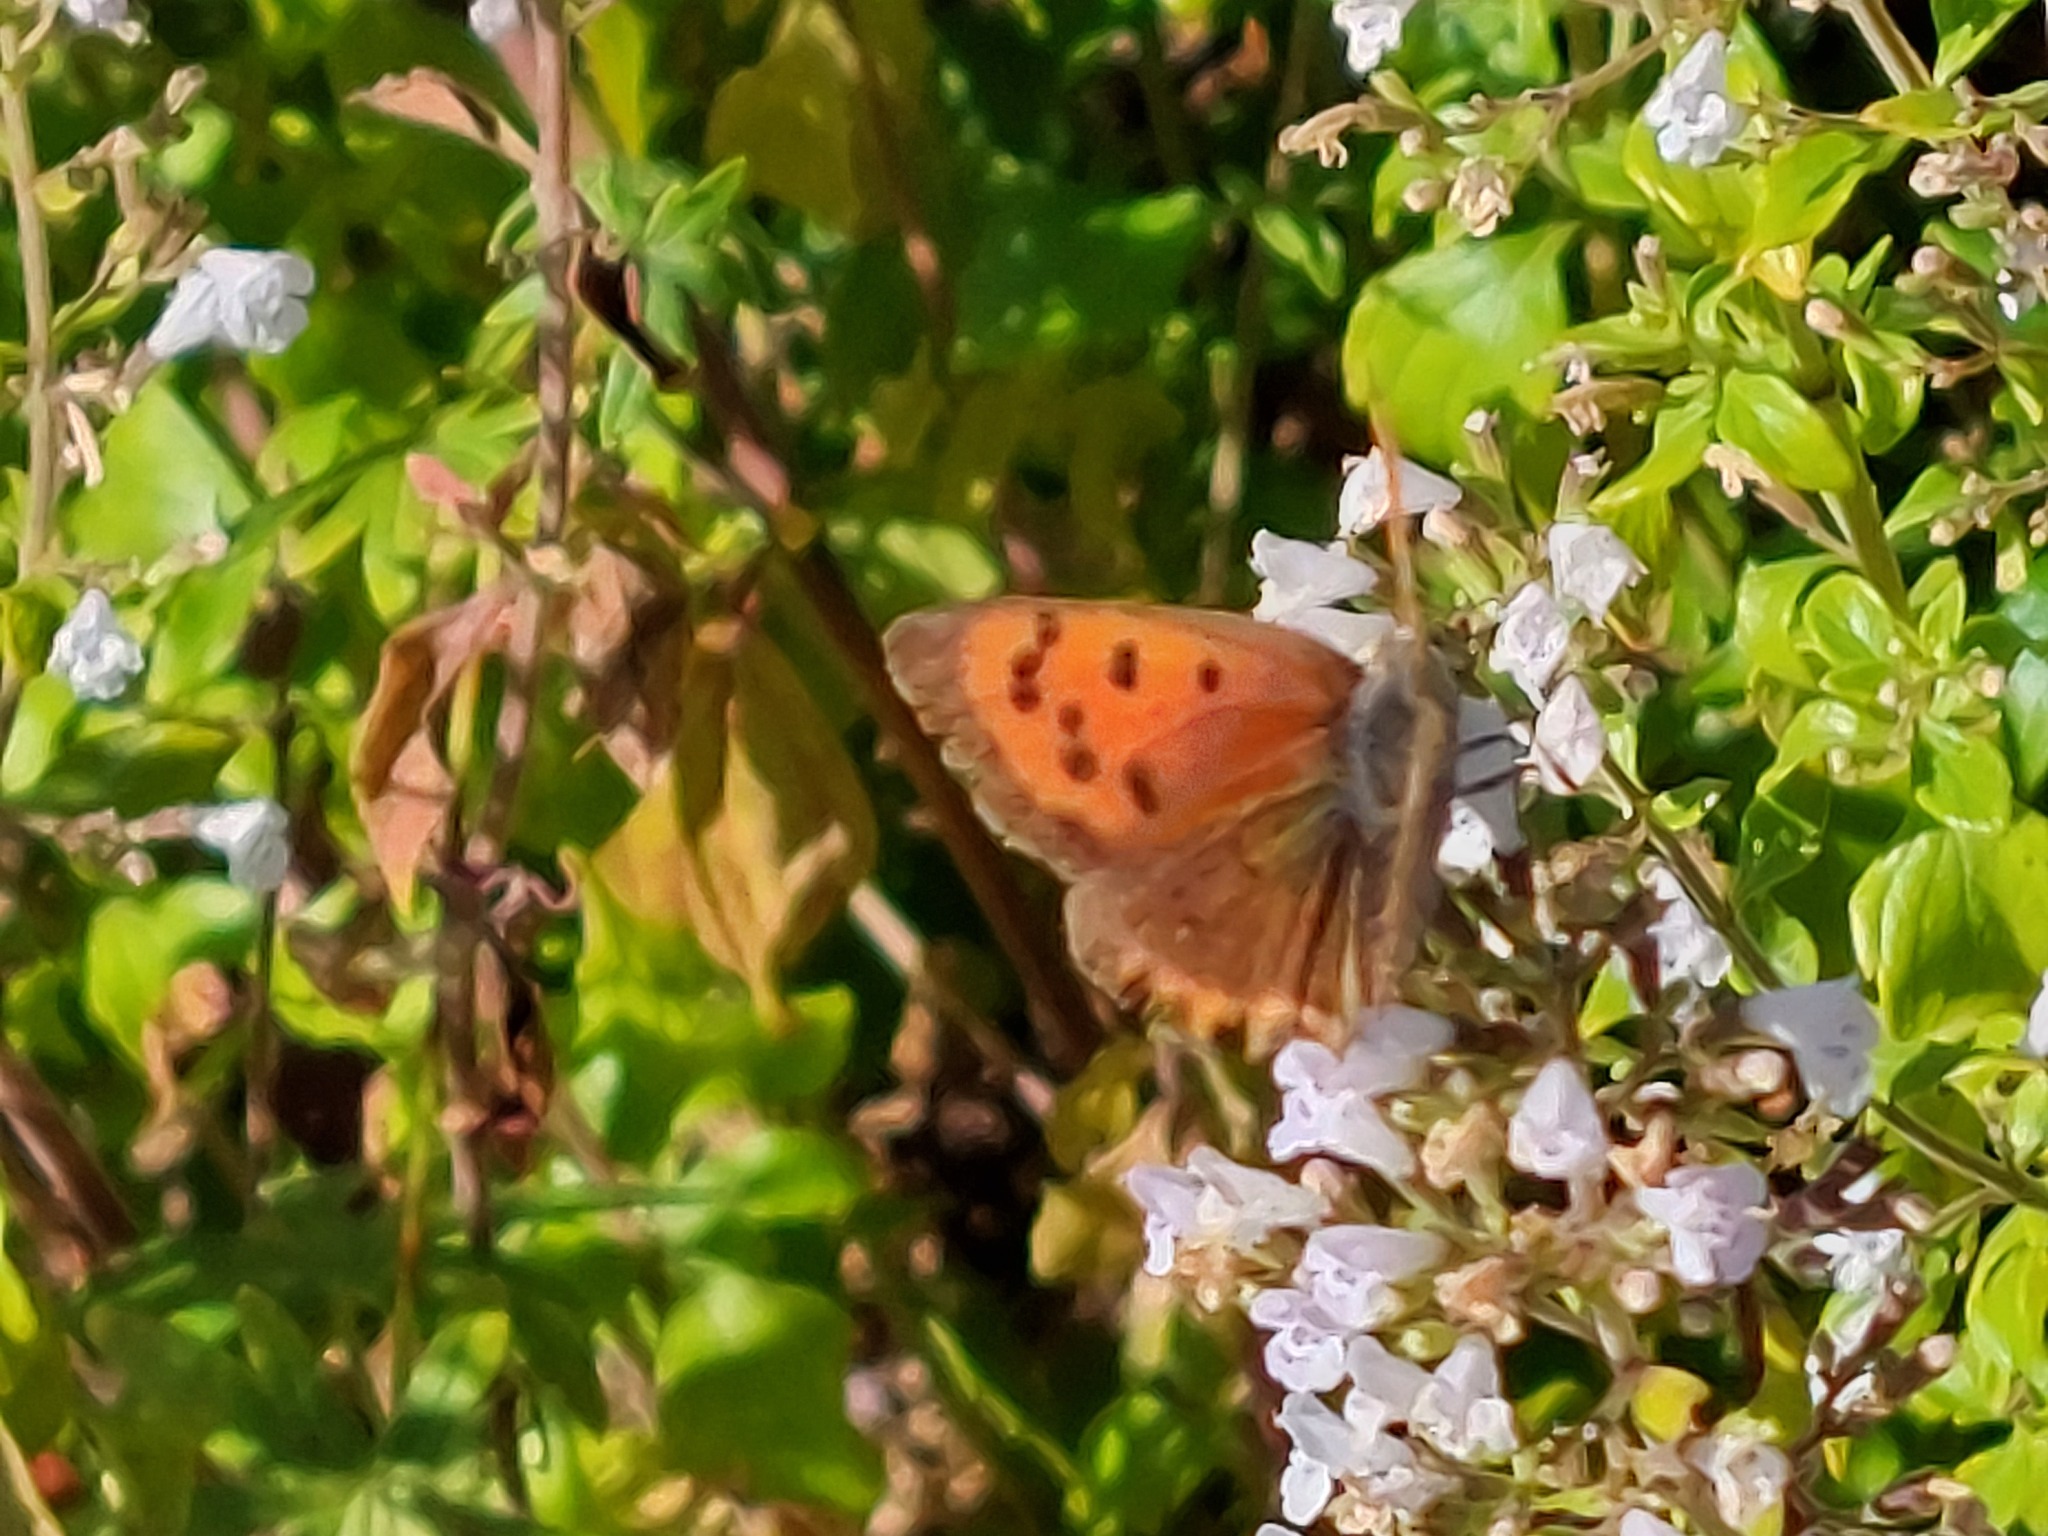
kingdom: Animalia
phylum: Arthropoda
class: Insecta
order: Lepidoptera
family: Lycaenidae
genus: Lycaena
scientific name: Lycaena phlaeas
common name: Small copper
